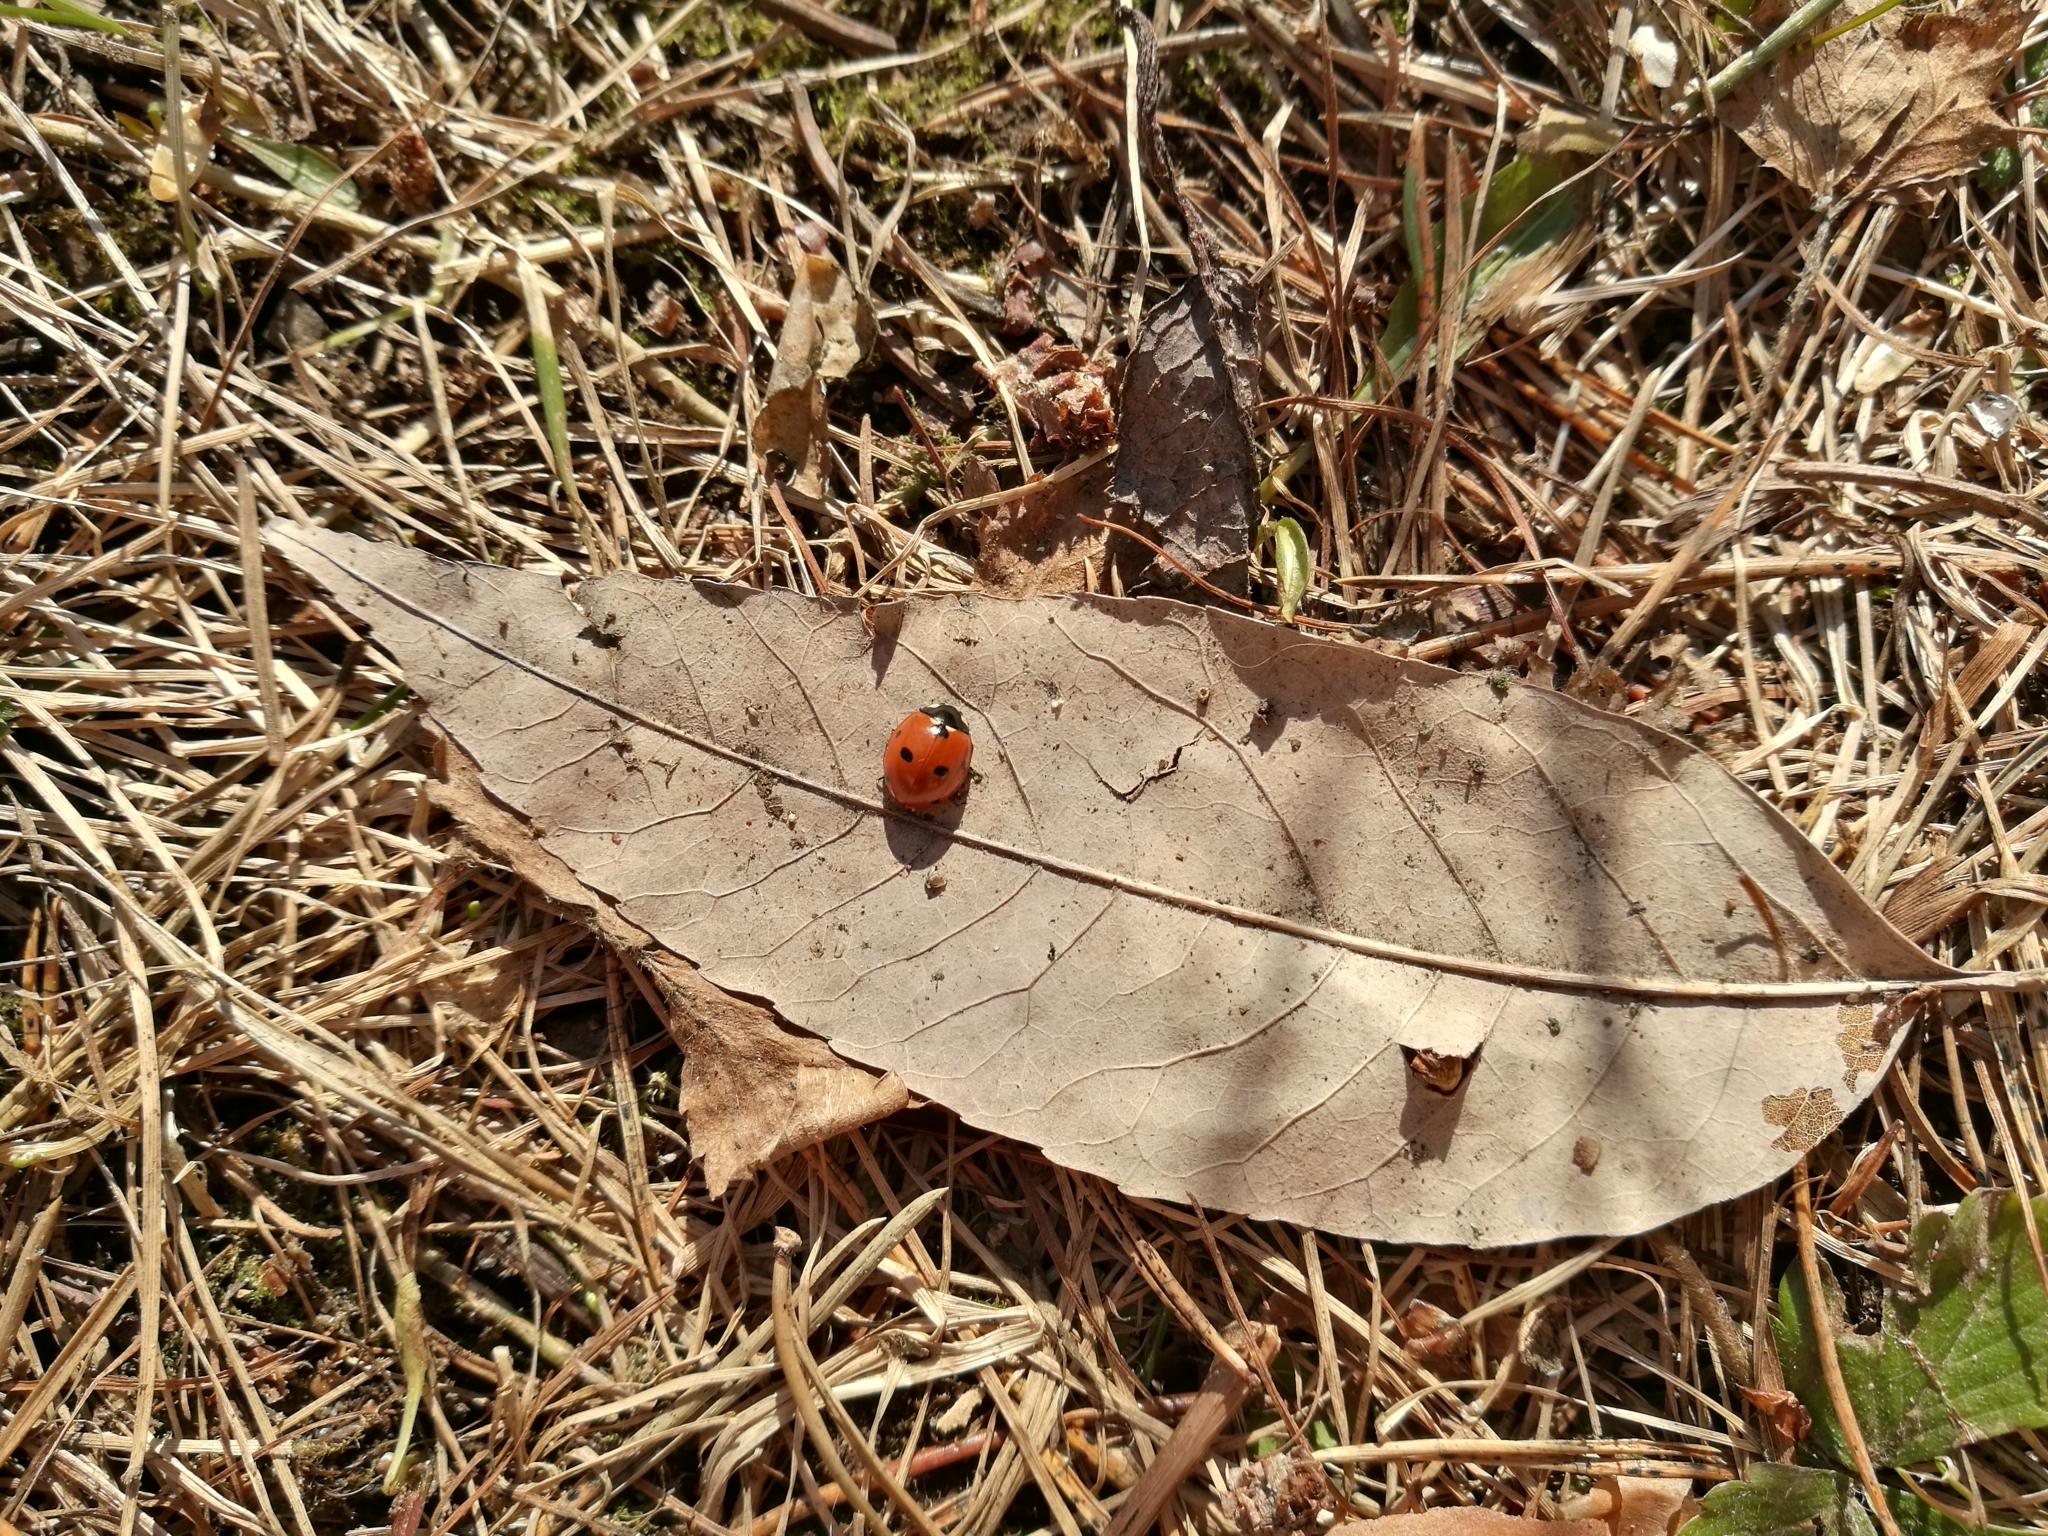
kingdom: Animalia
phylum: Arthropoda
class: Insecta
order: Coleoptera
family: Coccinellidae
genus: Coccinella
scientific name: Coccinella septempunctata
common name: Sevenspotted lady beetle
